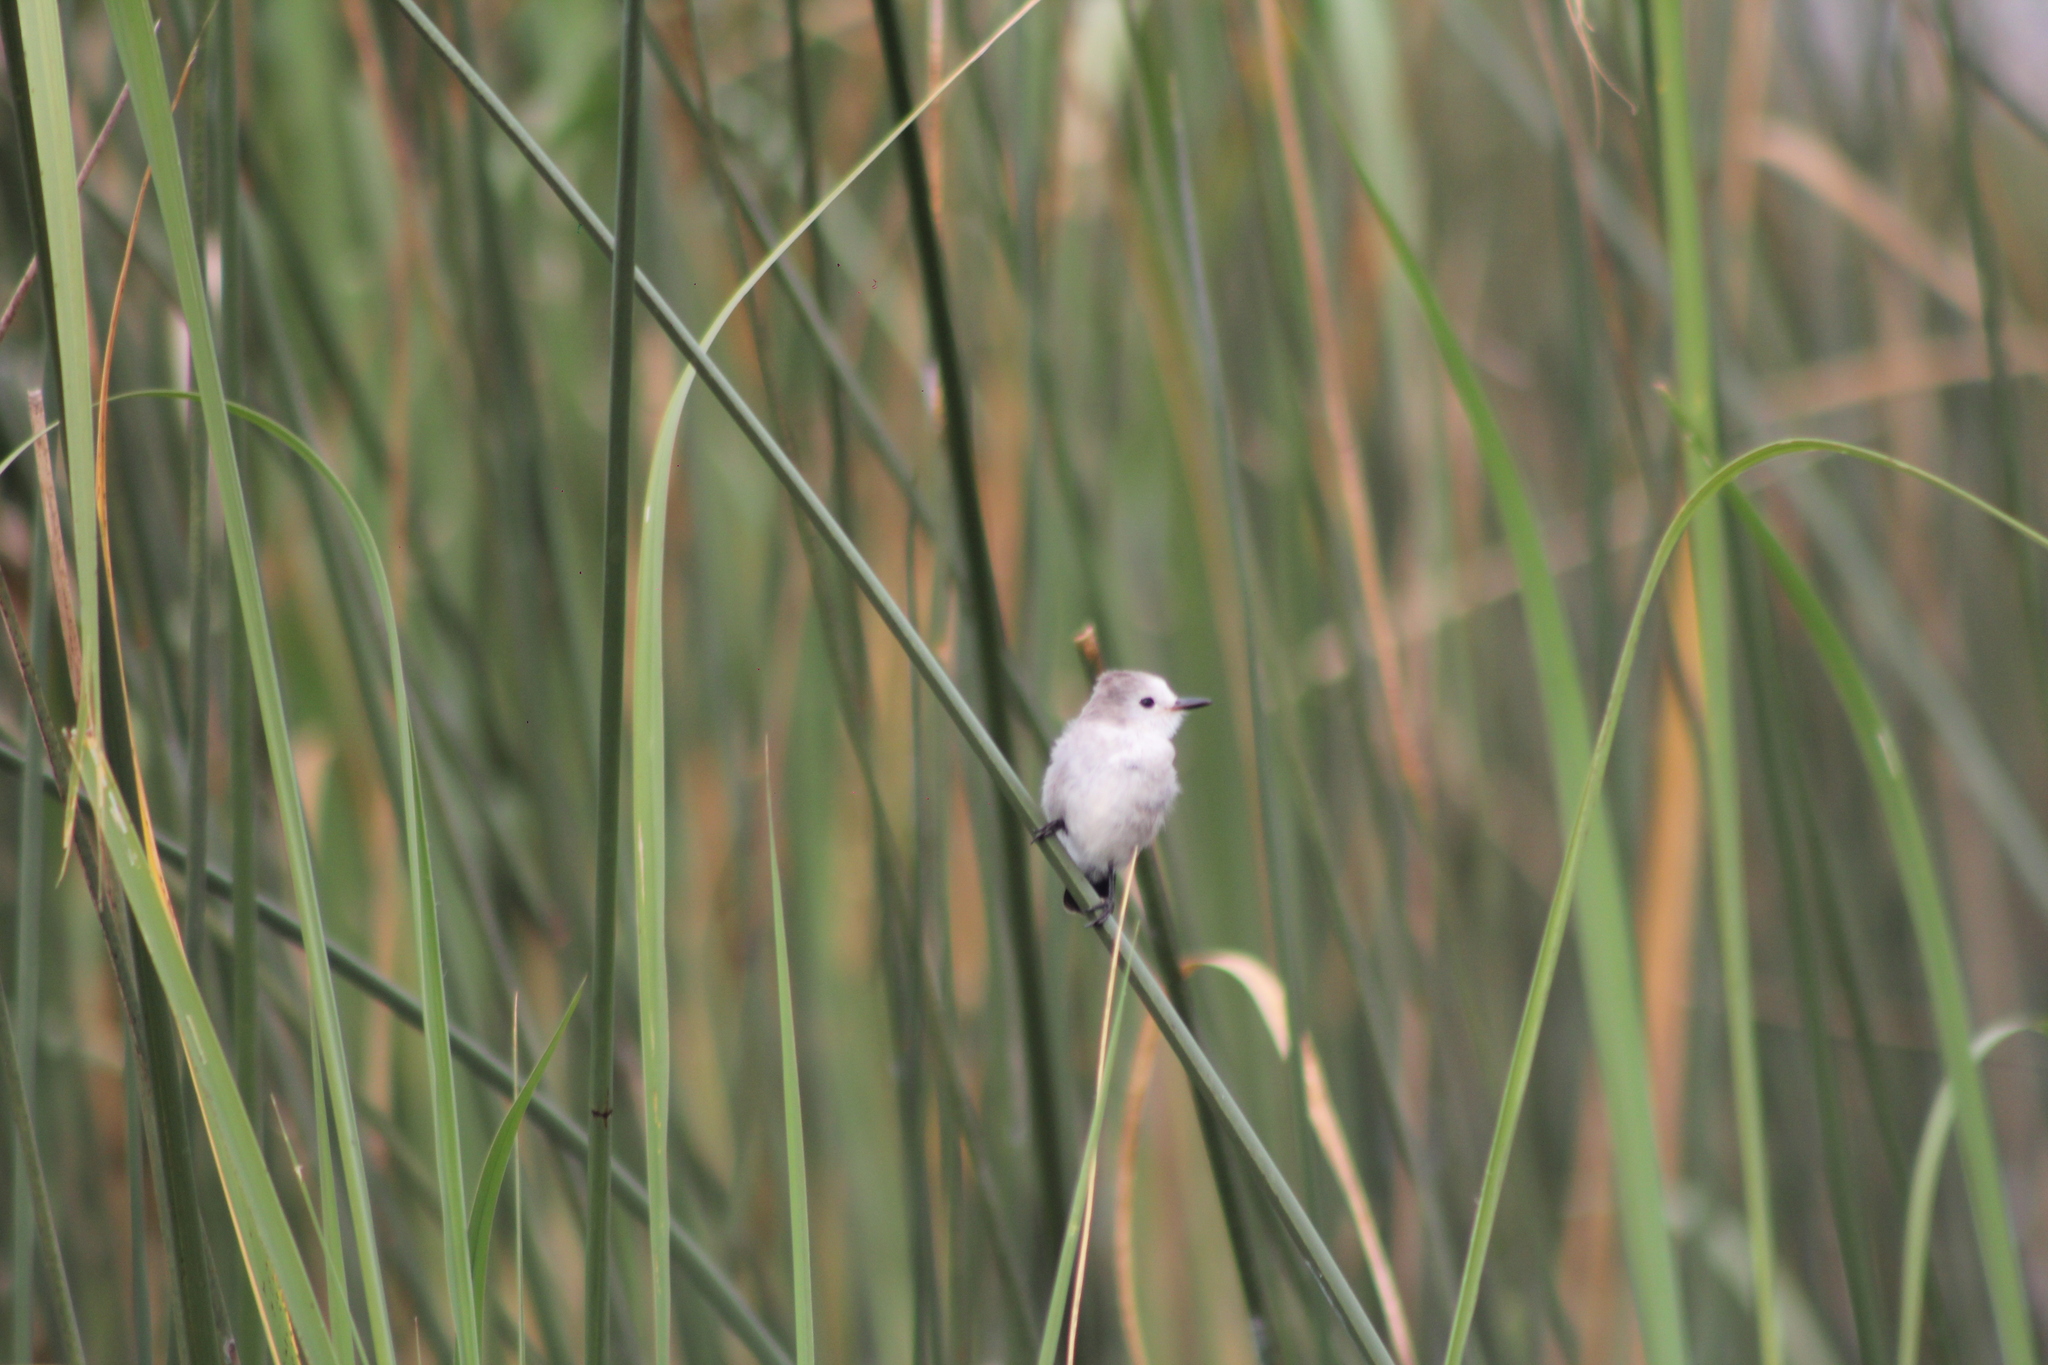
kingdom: Animalia
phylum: Chordata
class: Aves
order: Passeriformes
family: Tyrannidae
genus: Arundinicola
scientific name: Arundinicola leucocephala
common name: White-headed marsh tyrant
